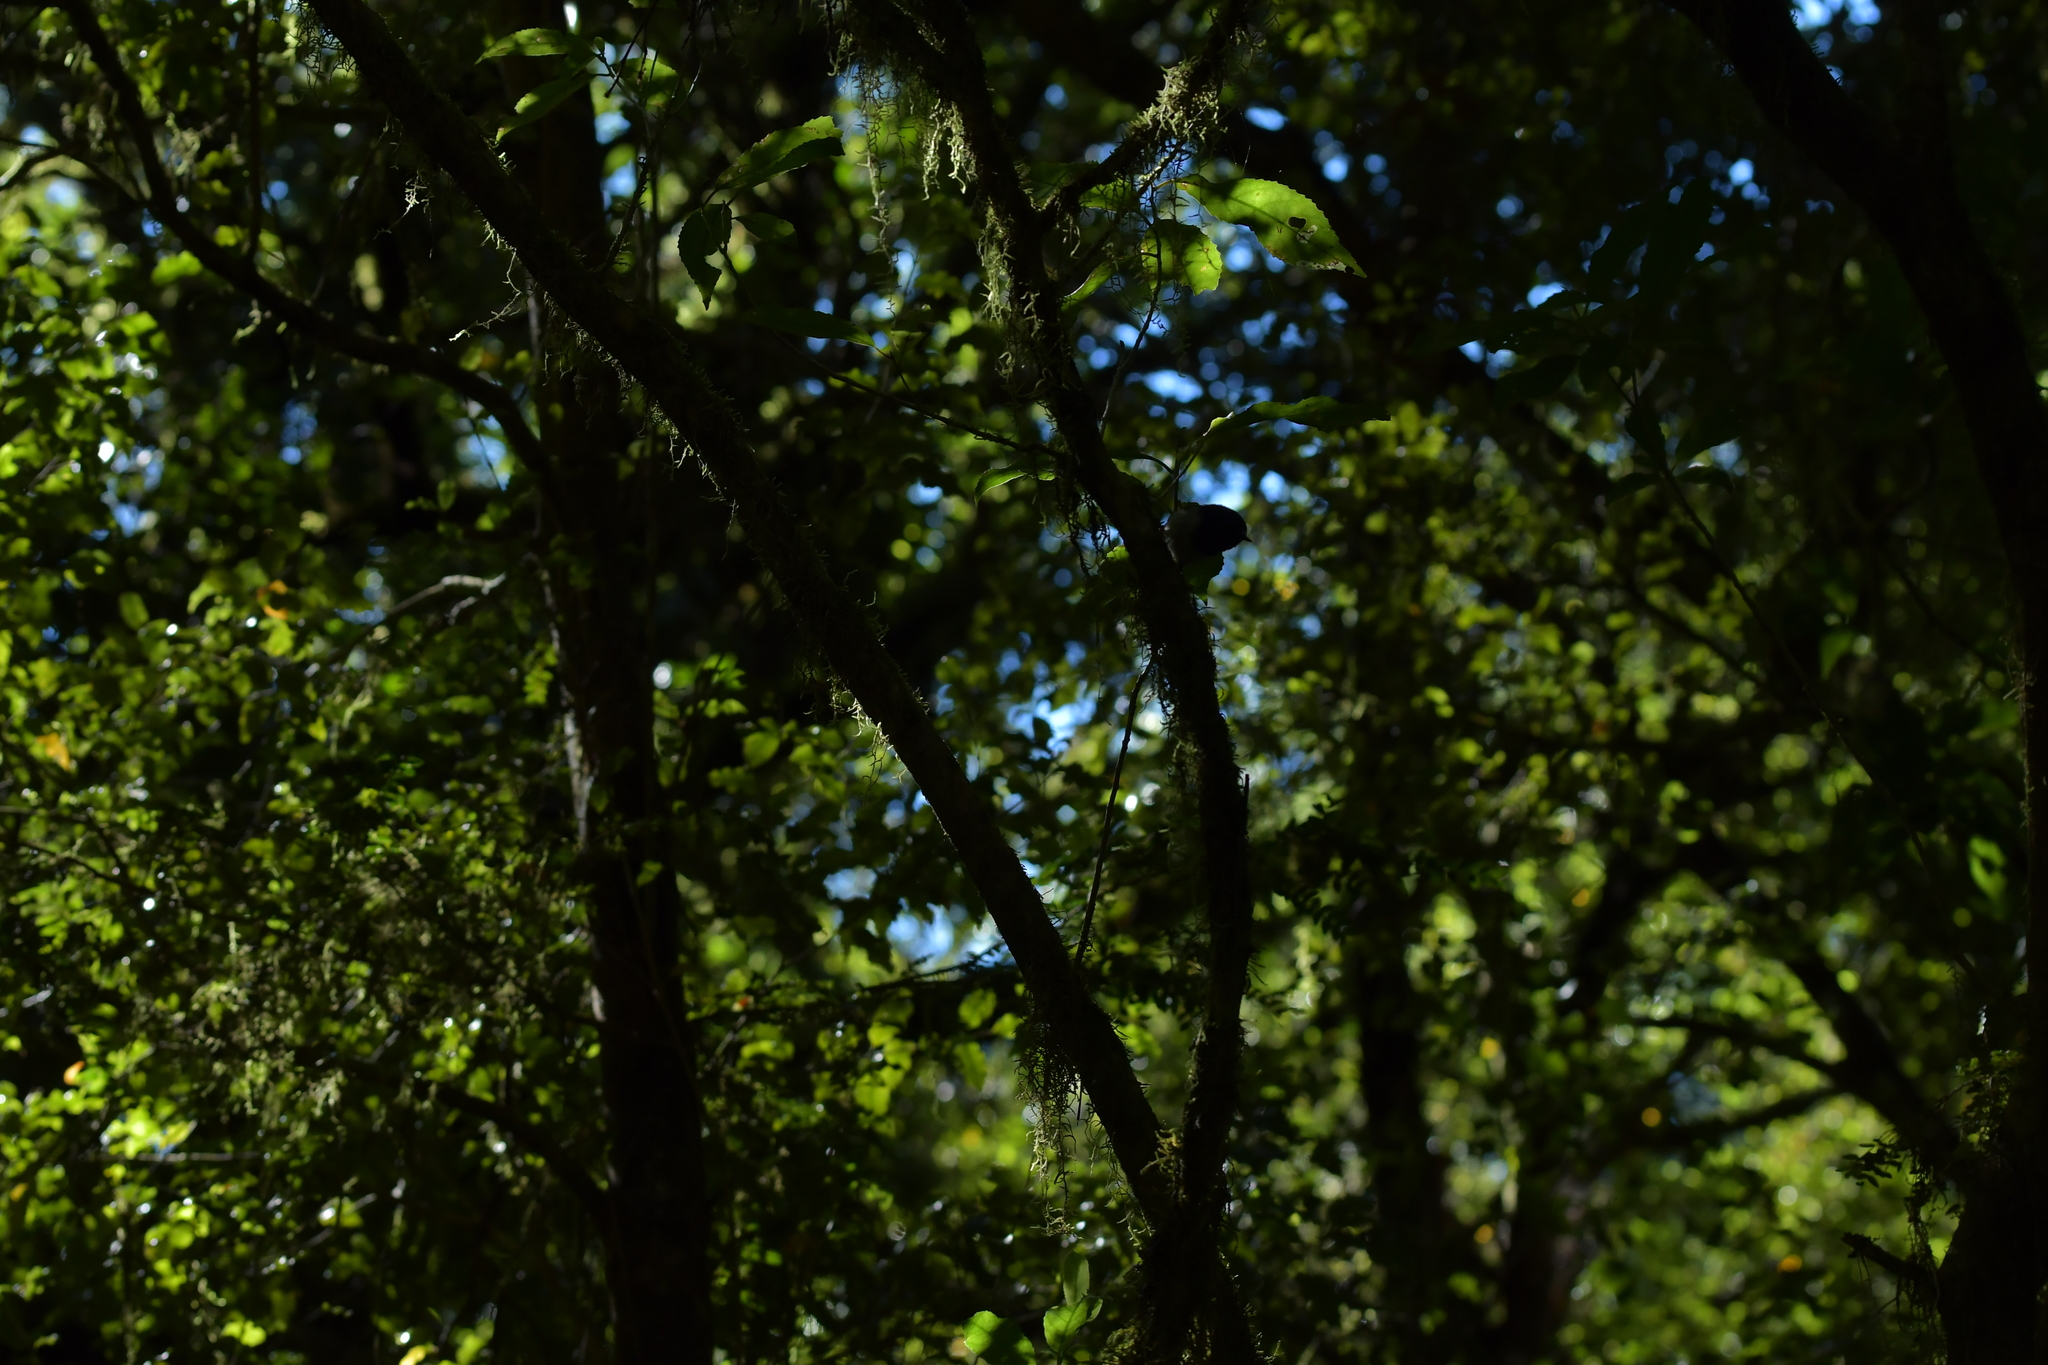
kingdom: Animalia
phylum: Chordata
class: Aves
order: Passeriformes
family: Petroicidae
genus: Petroica
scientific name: Petroica macrocephala
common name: Tomtit
